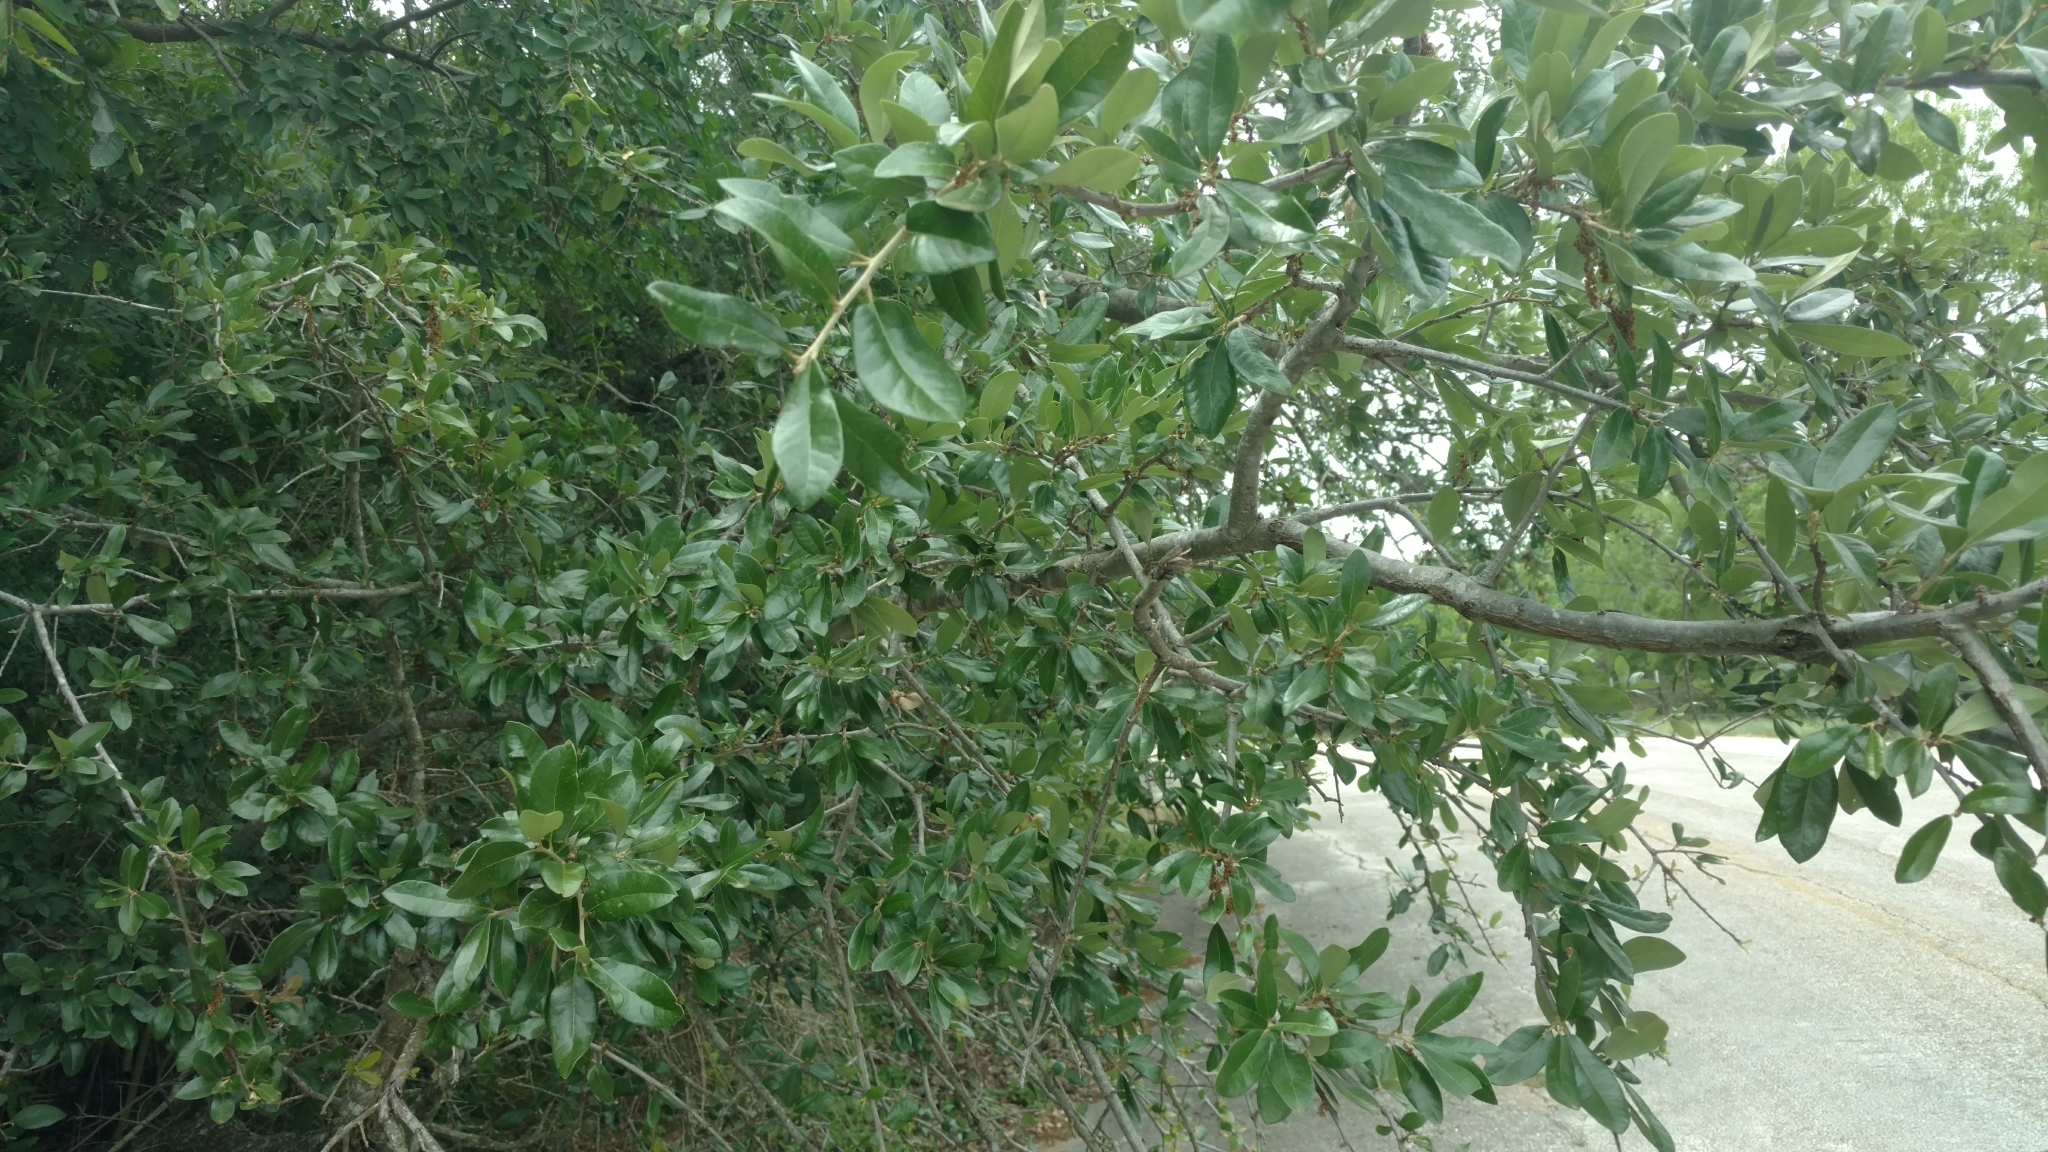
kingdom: Plantae
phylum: Tracheophyta
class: Magnoliopsida
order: Fagales
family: Fagaceae
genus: Quercus
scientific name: Quercus fusiformis
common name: Texas live oak
